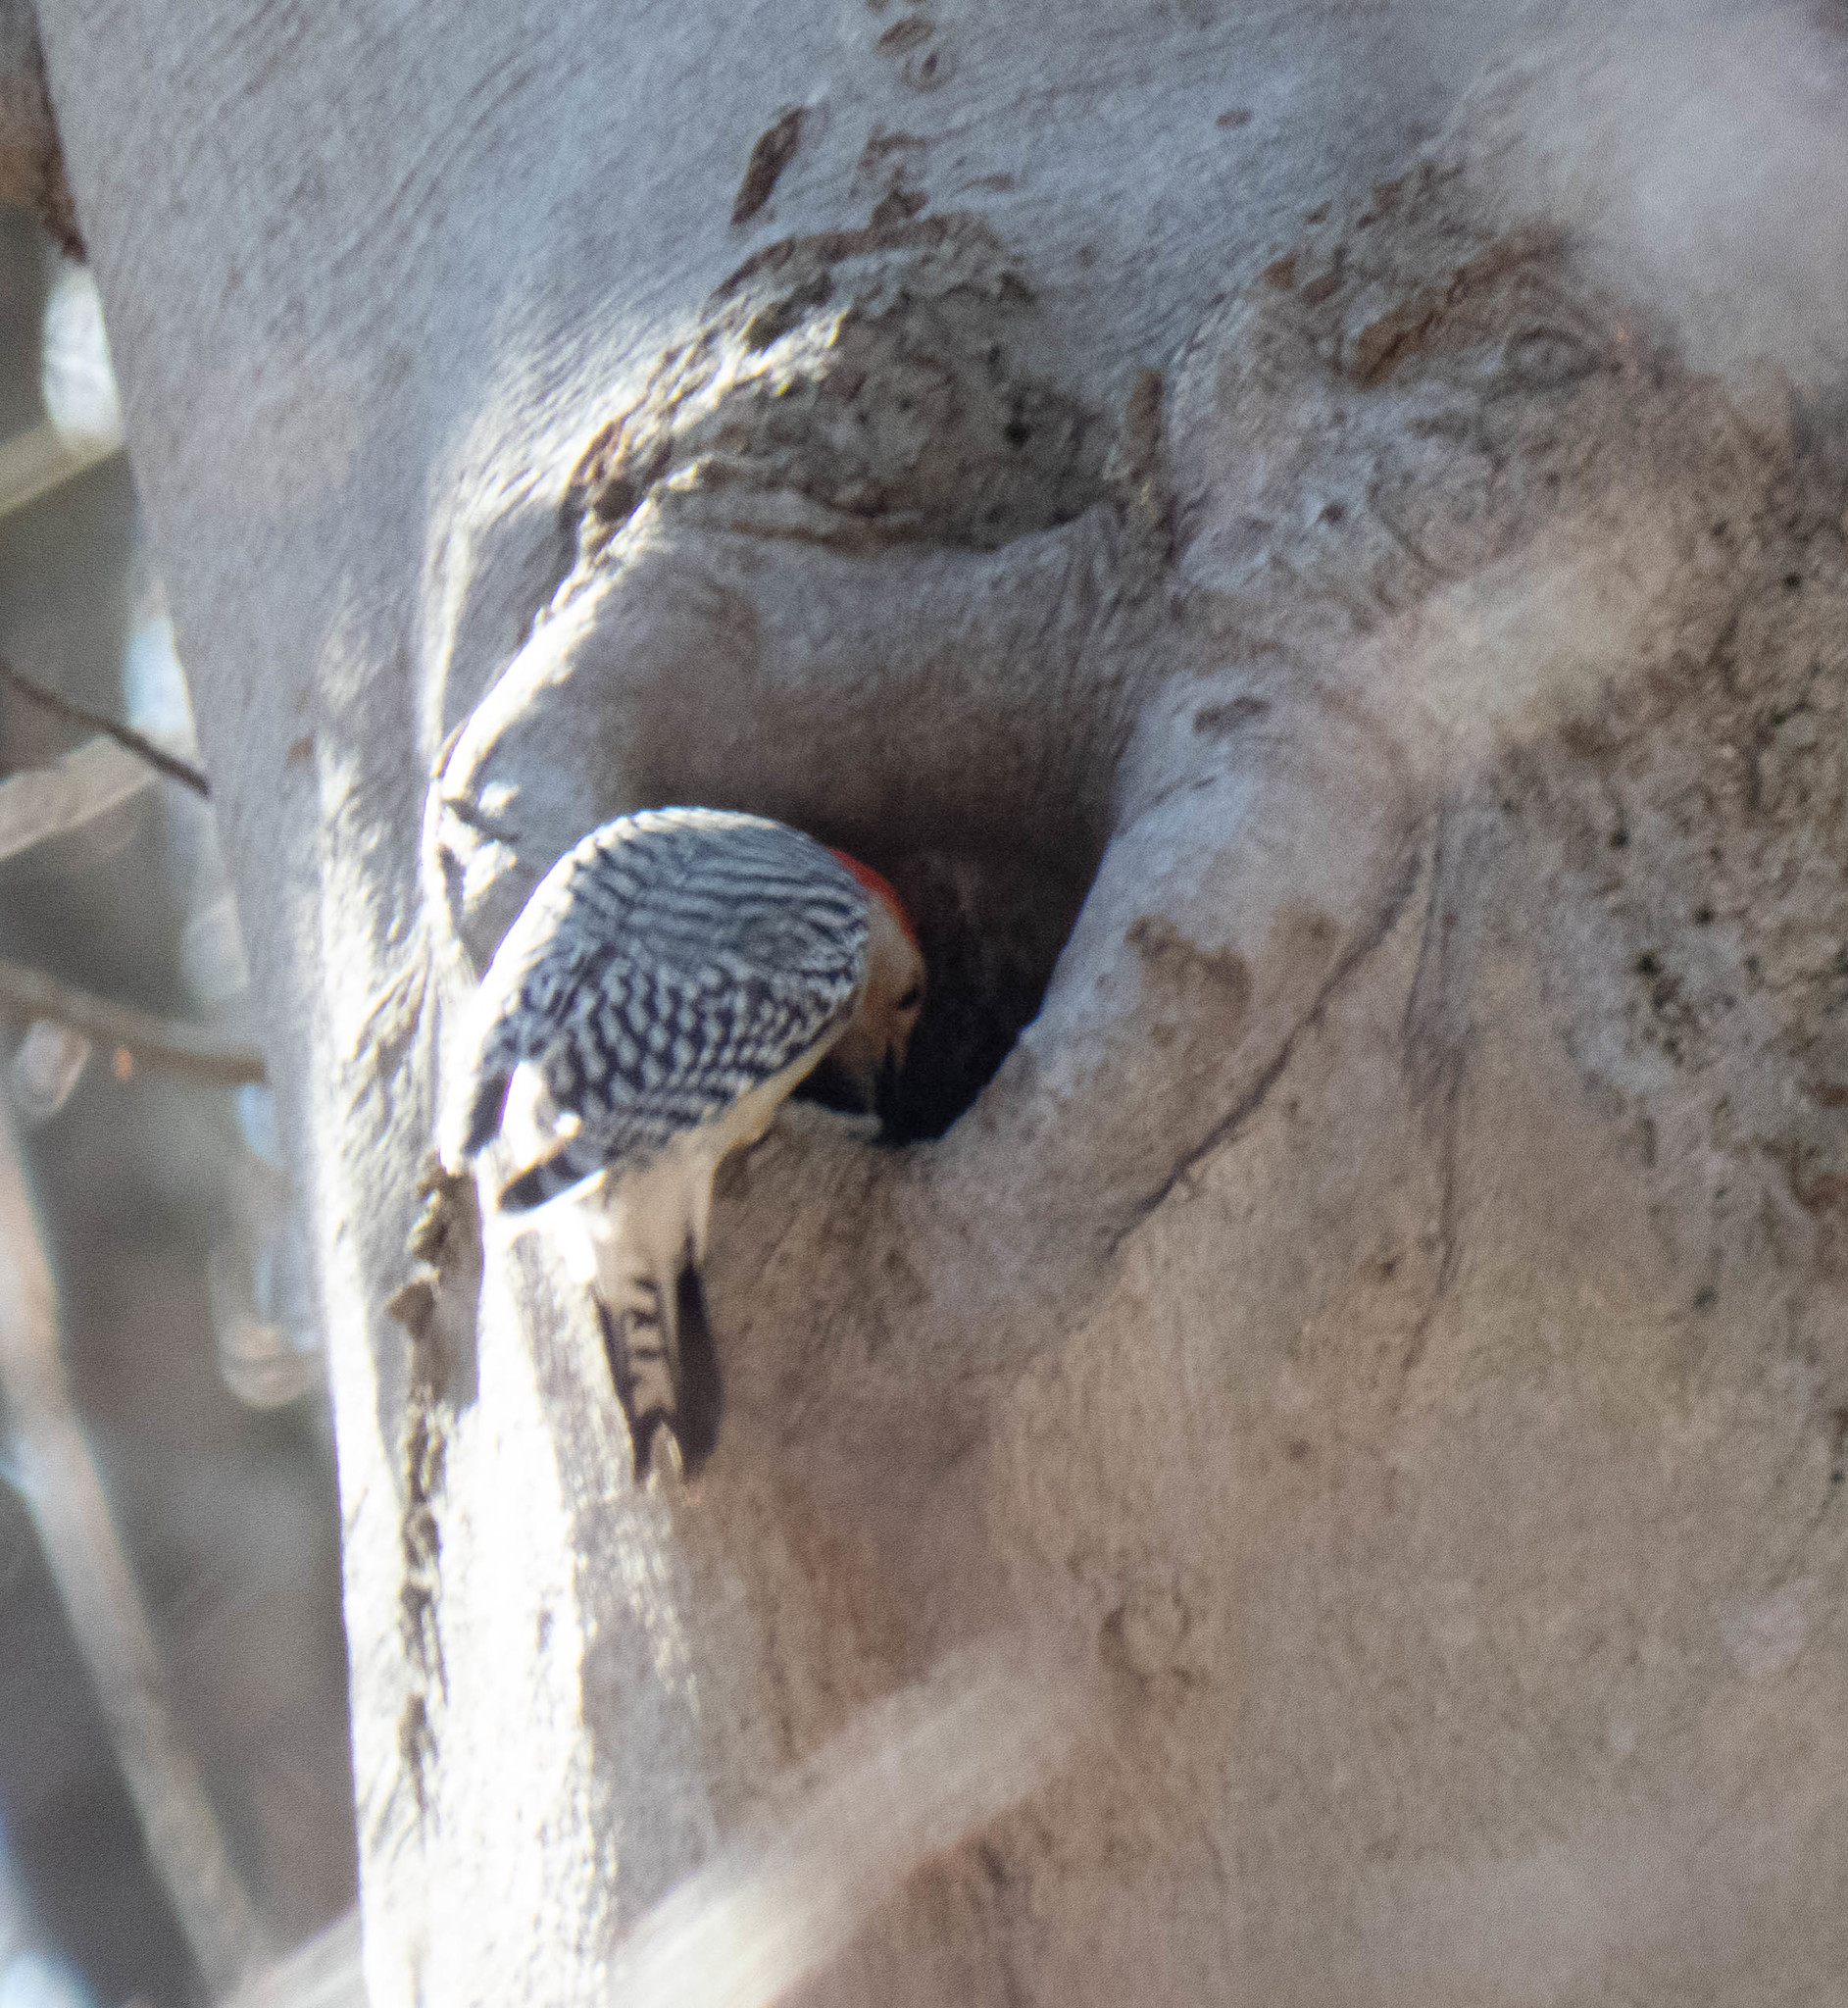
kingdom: Animalia
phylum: Chordata
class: Aves
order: Piciformes
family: Picidae
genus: Melanerpes
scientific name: Melanerpes carolinus
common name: Red-bellied woodpecker
